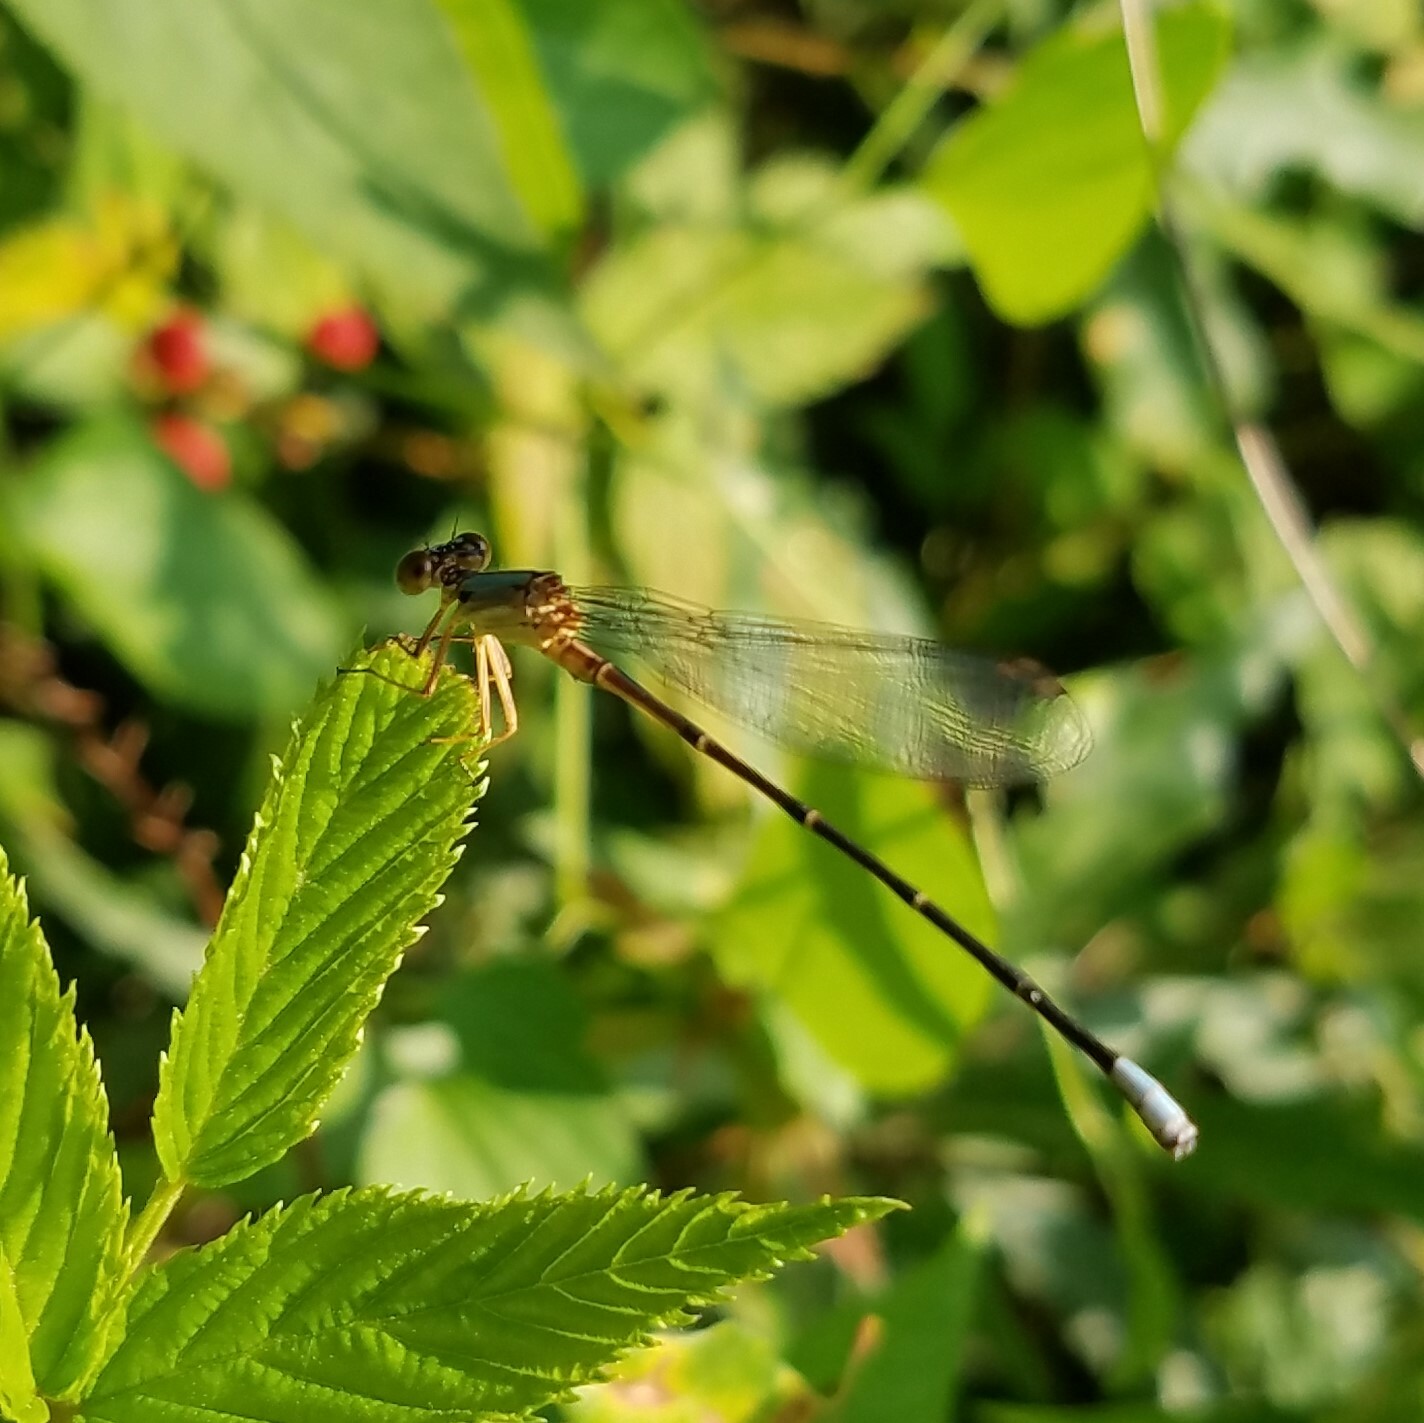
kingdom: Animalia
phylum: Arthropoda
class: Insecta
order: Odonata
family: Coenagrionidae
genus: Argia
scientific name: Argia apicalis
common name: Blue-fronted dancer
